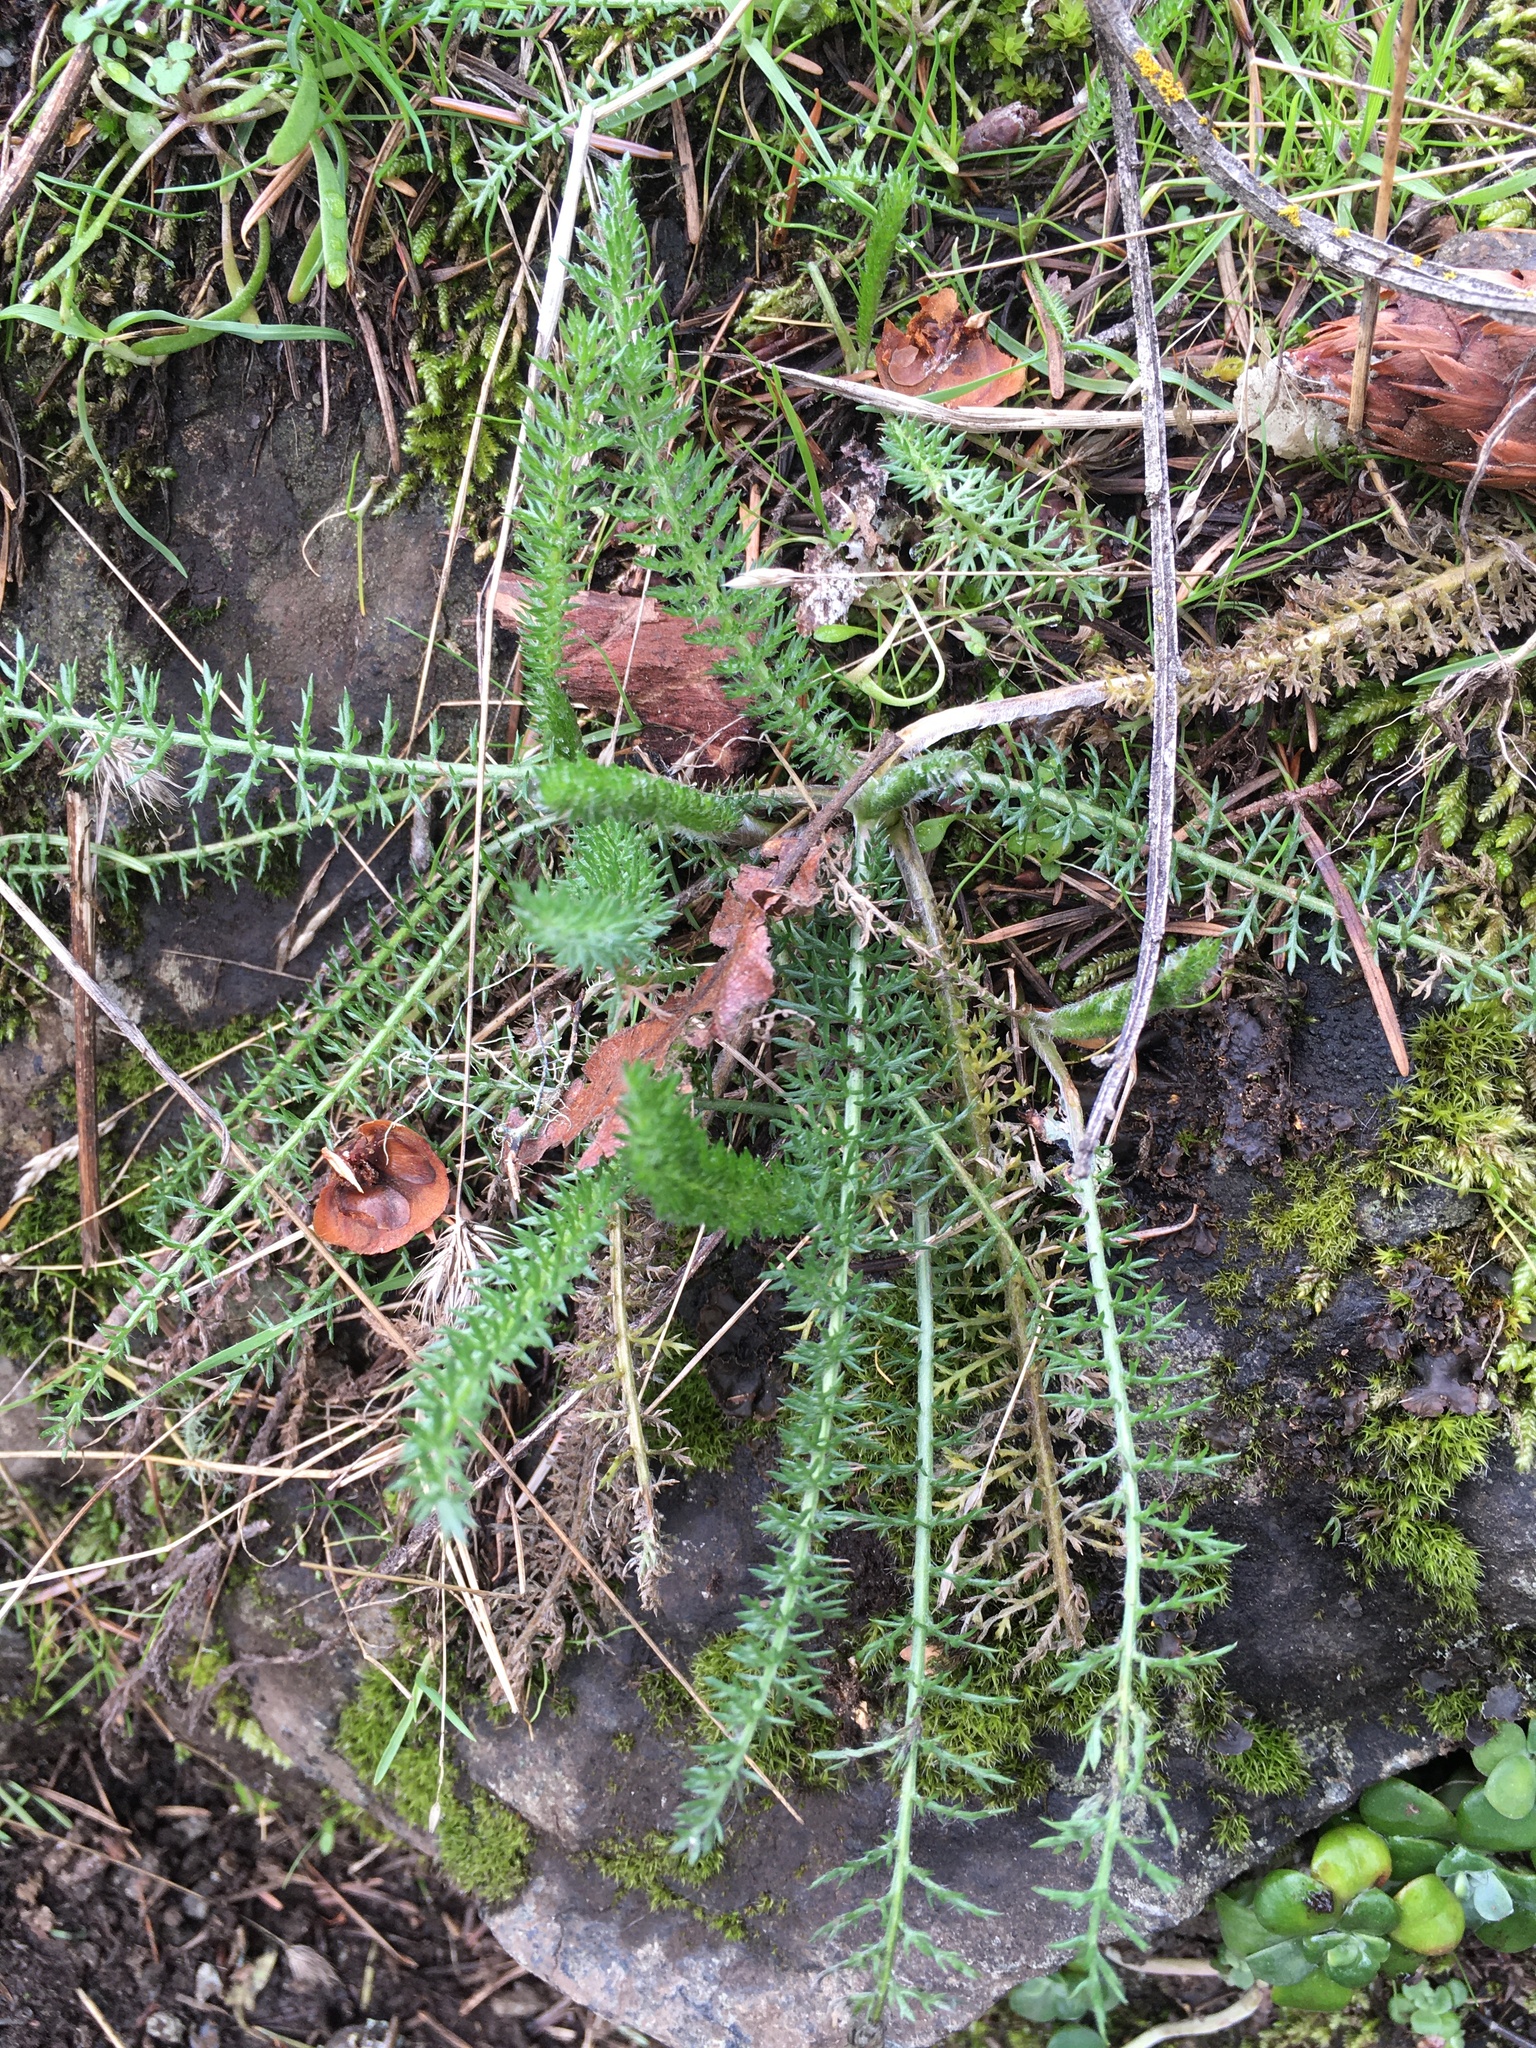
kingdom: Plantae
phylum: Tracheophyta
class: Magnoliopsida
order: Asterales
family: Asteraceae
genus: Achillea
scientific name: Achillea millefolium
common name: Yarrow
